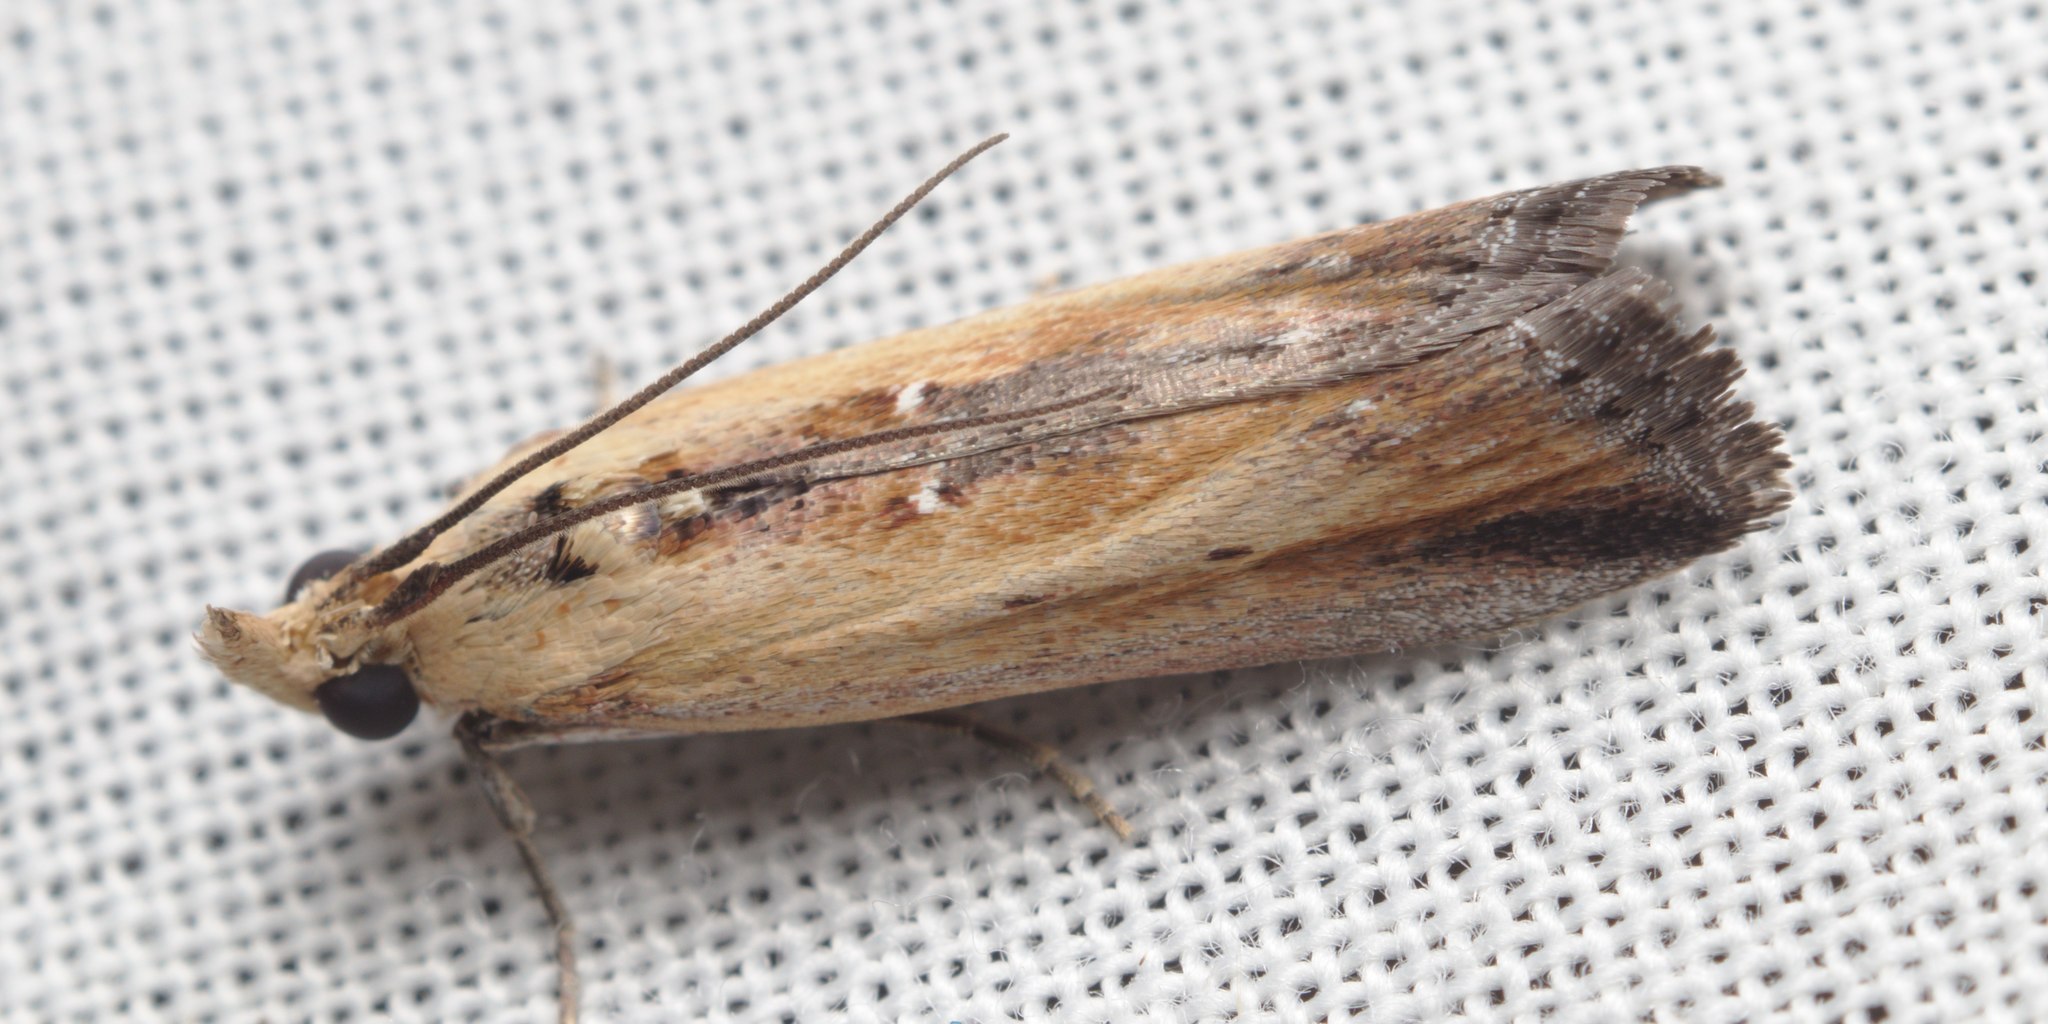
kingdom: Animalia
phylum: Arthropoda
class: Insecta
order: Lepidoptera
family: Pyralidae
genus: Morosaphycita
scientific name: Morosaphycita oculiferella
